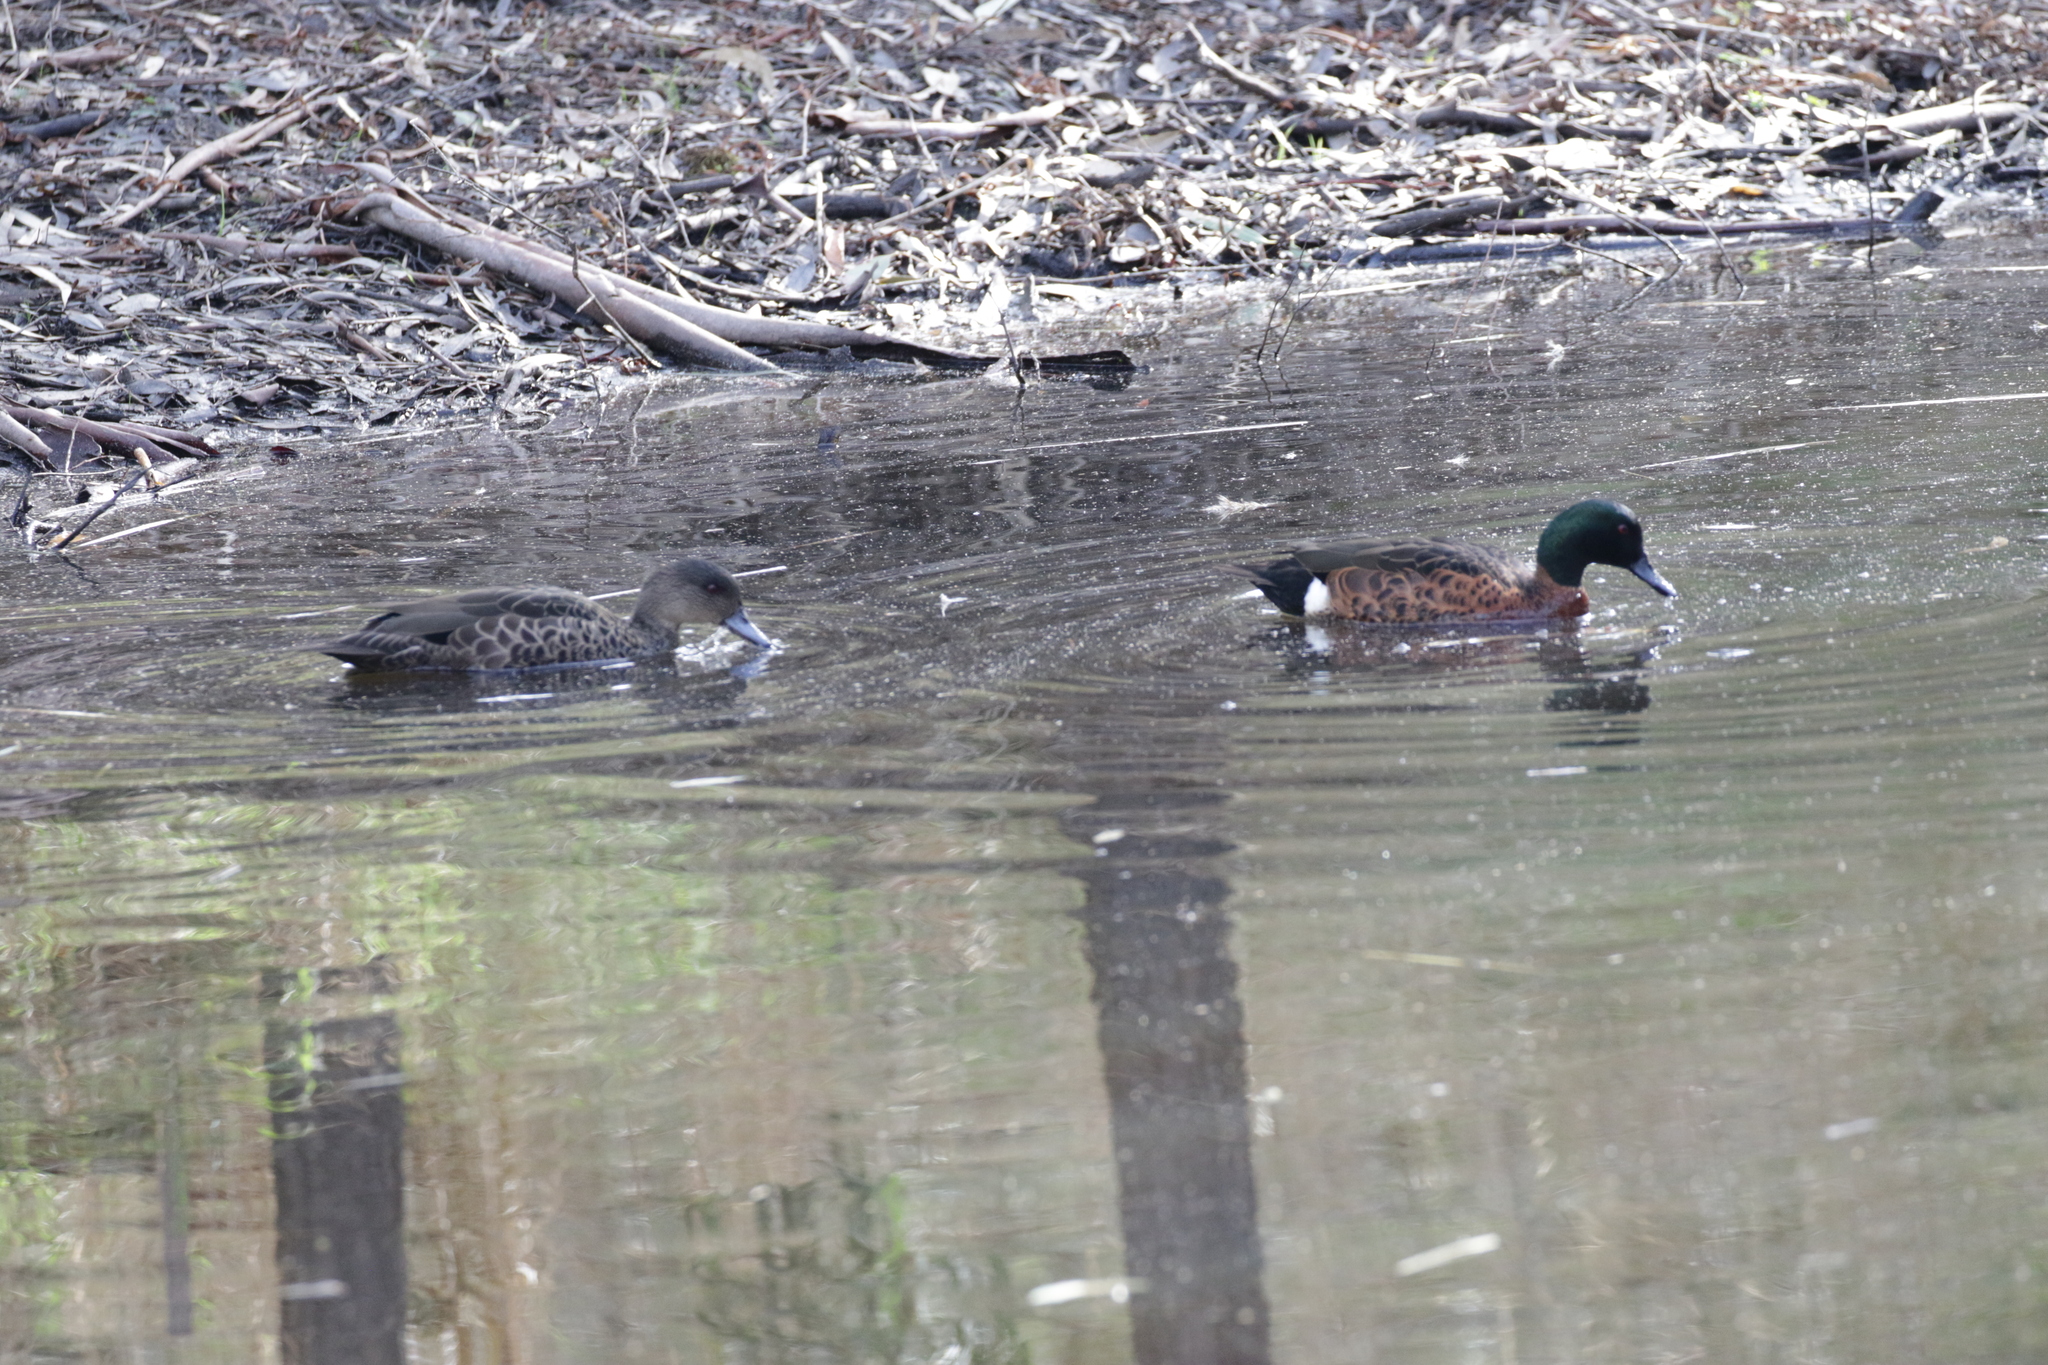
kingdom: Animalia
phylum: Chordata
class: Aves
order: Anseriformes
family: Anatidae
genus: Anas
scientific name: Anas castanea
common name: Chestnut teal
